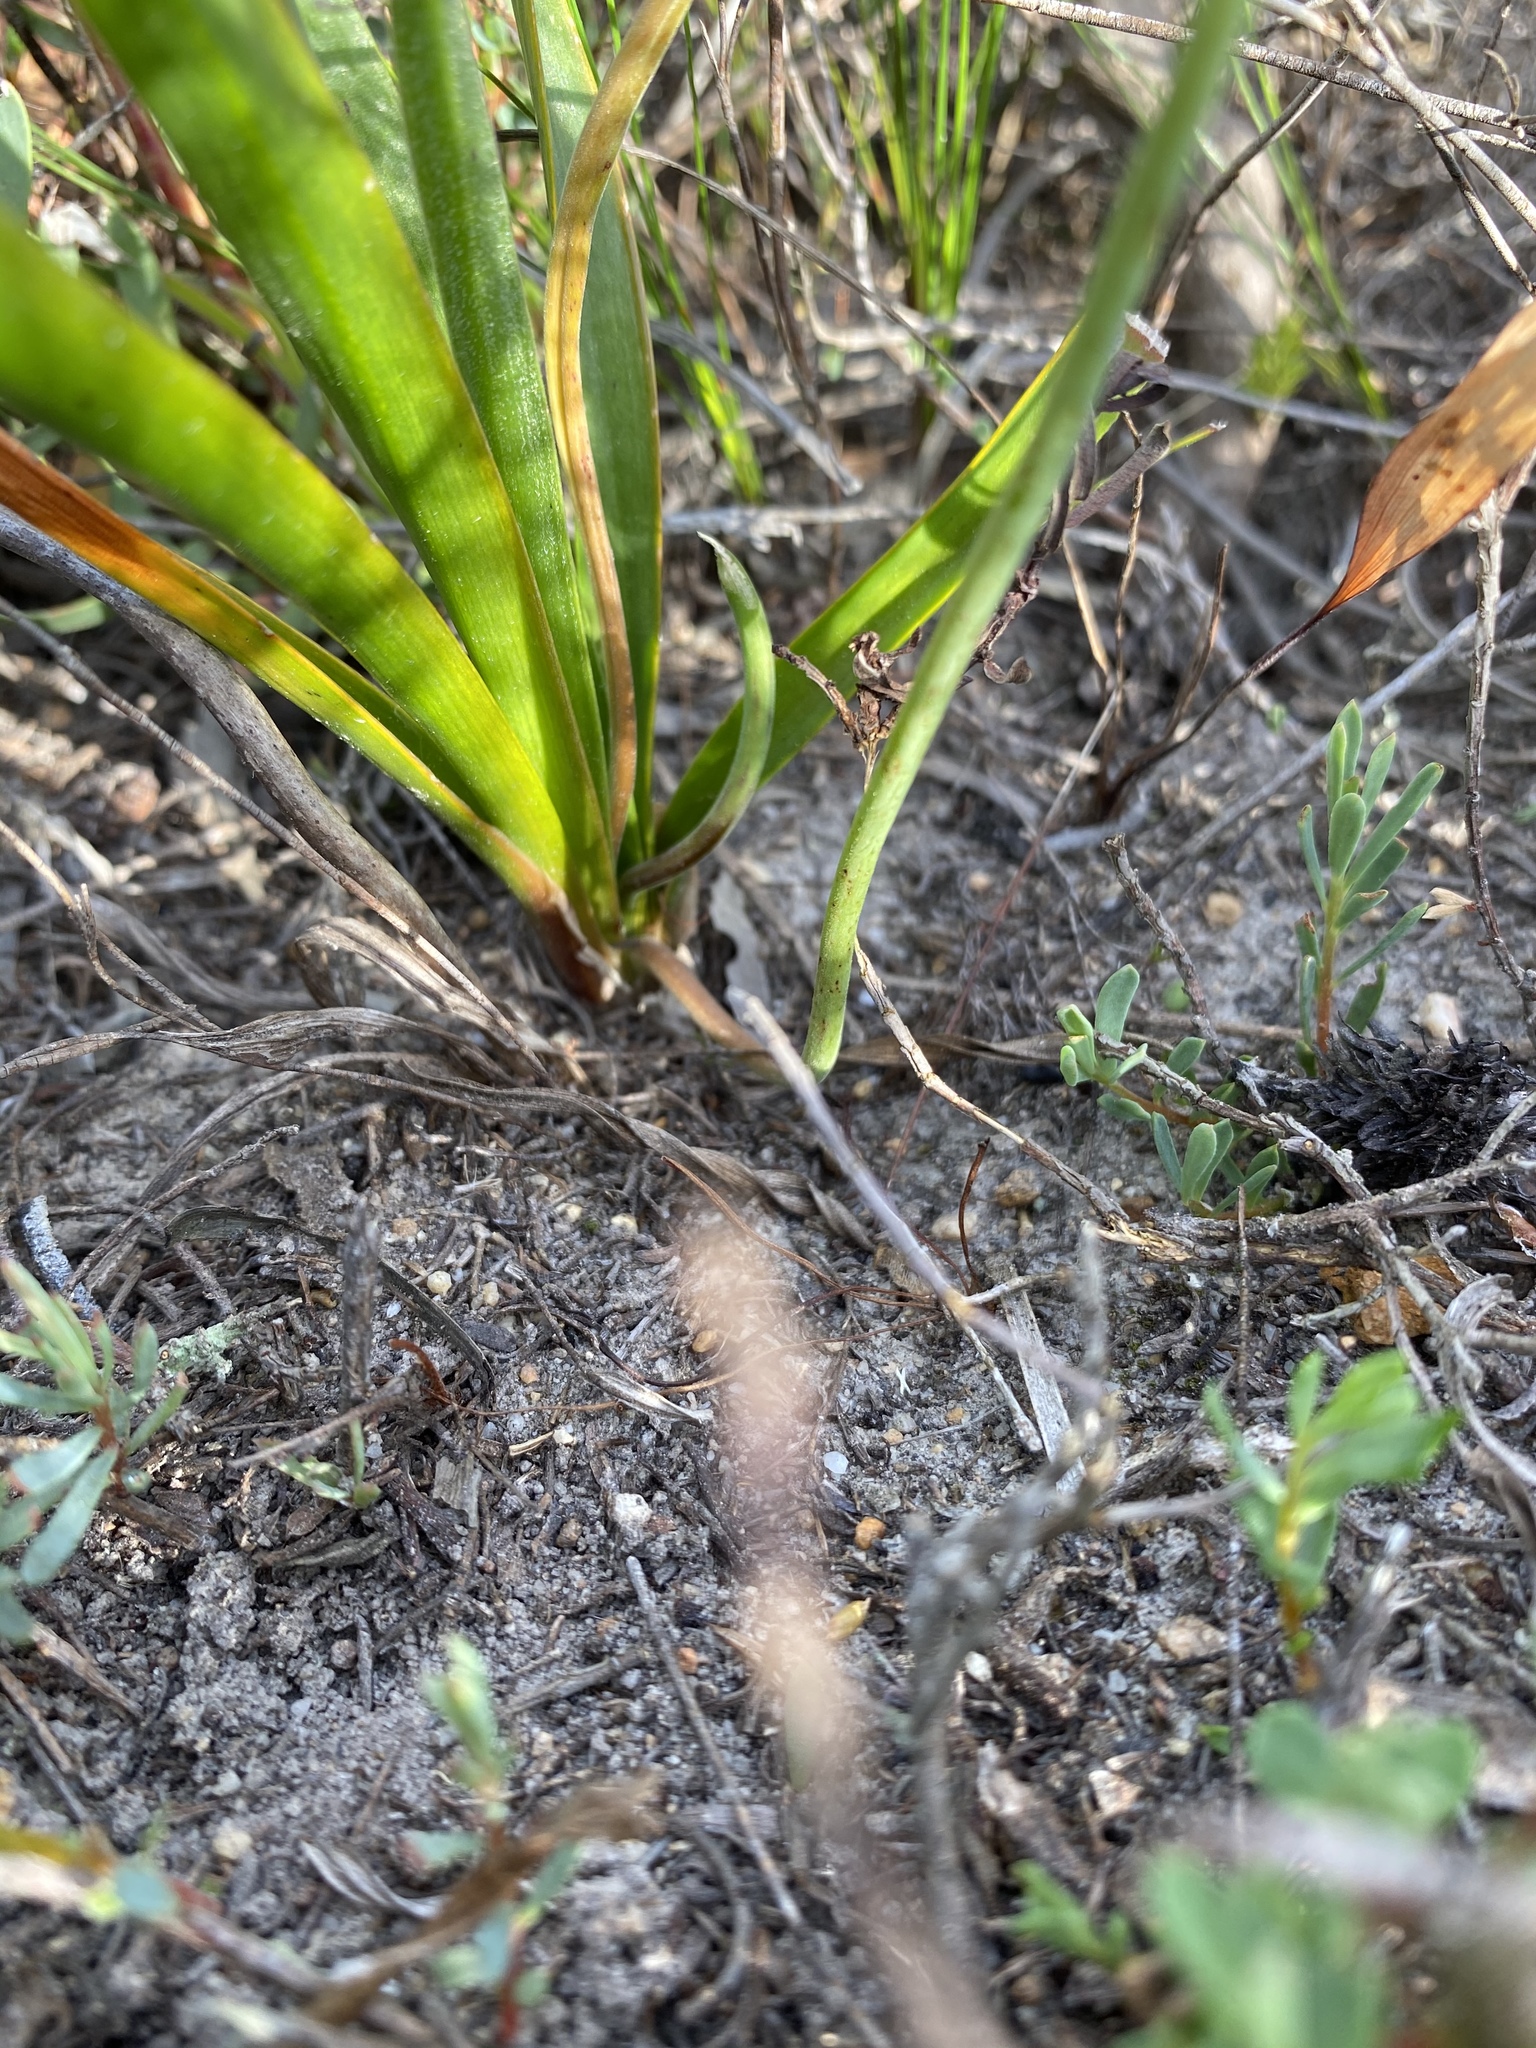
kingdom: Plantae
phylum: Tracheophyta
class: Liliopsida
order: Asparagales
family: Asphodelaceae
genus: Trachyandra
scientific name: Trachyandra hirsuta
